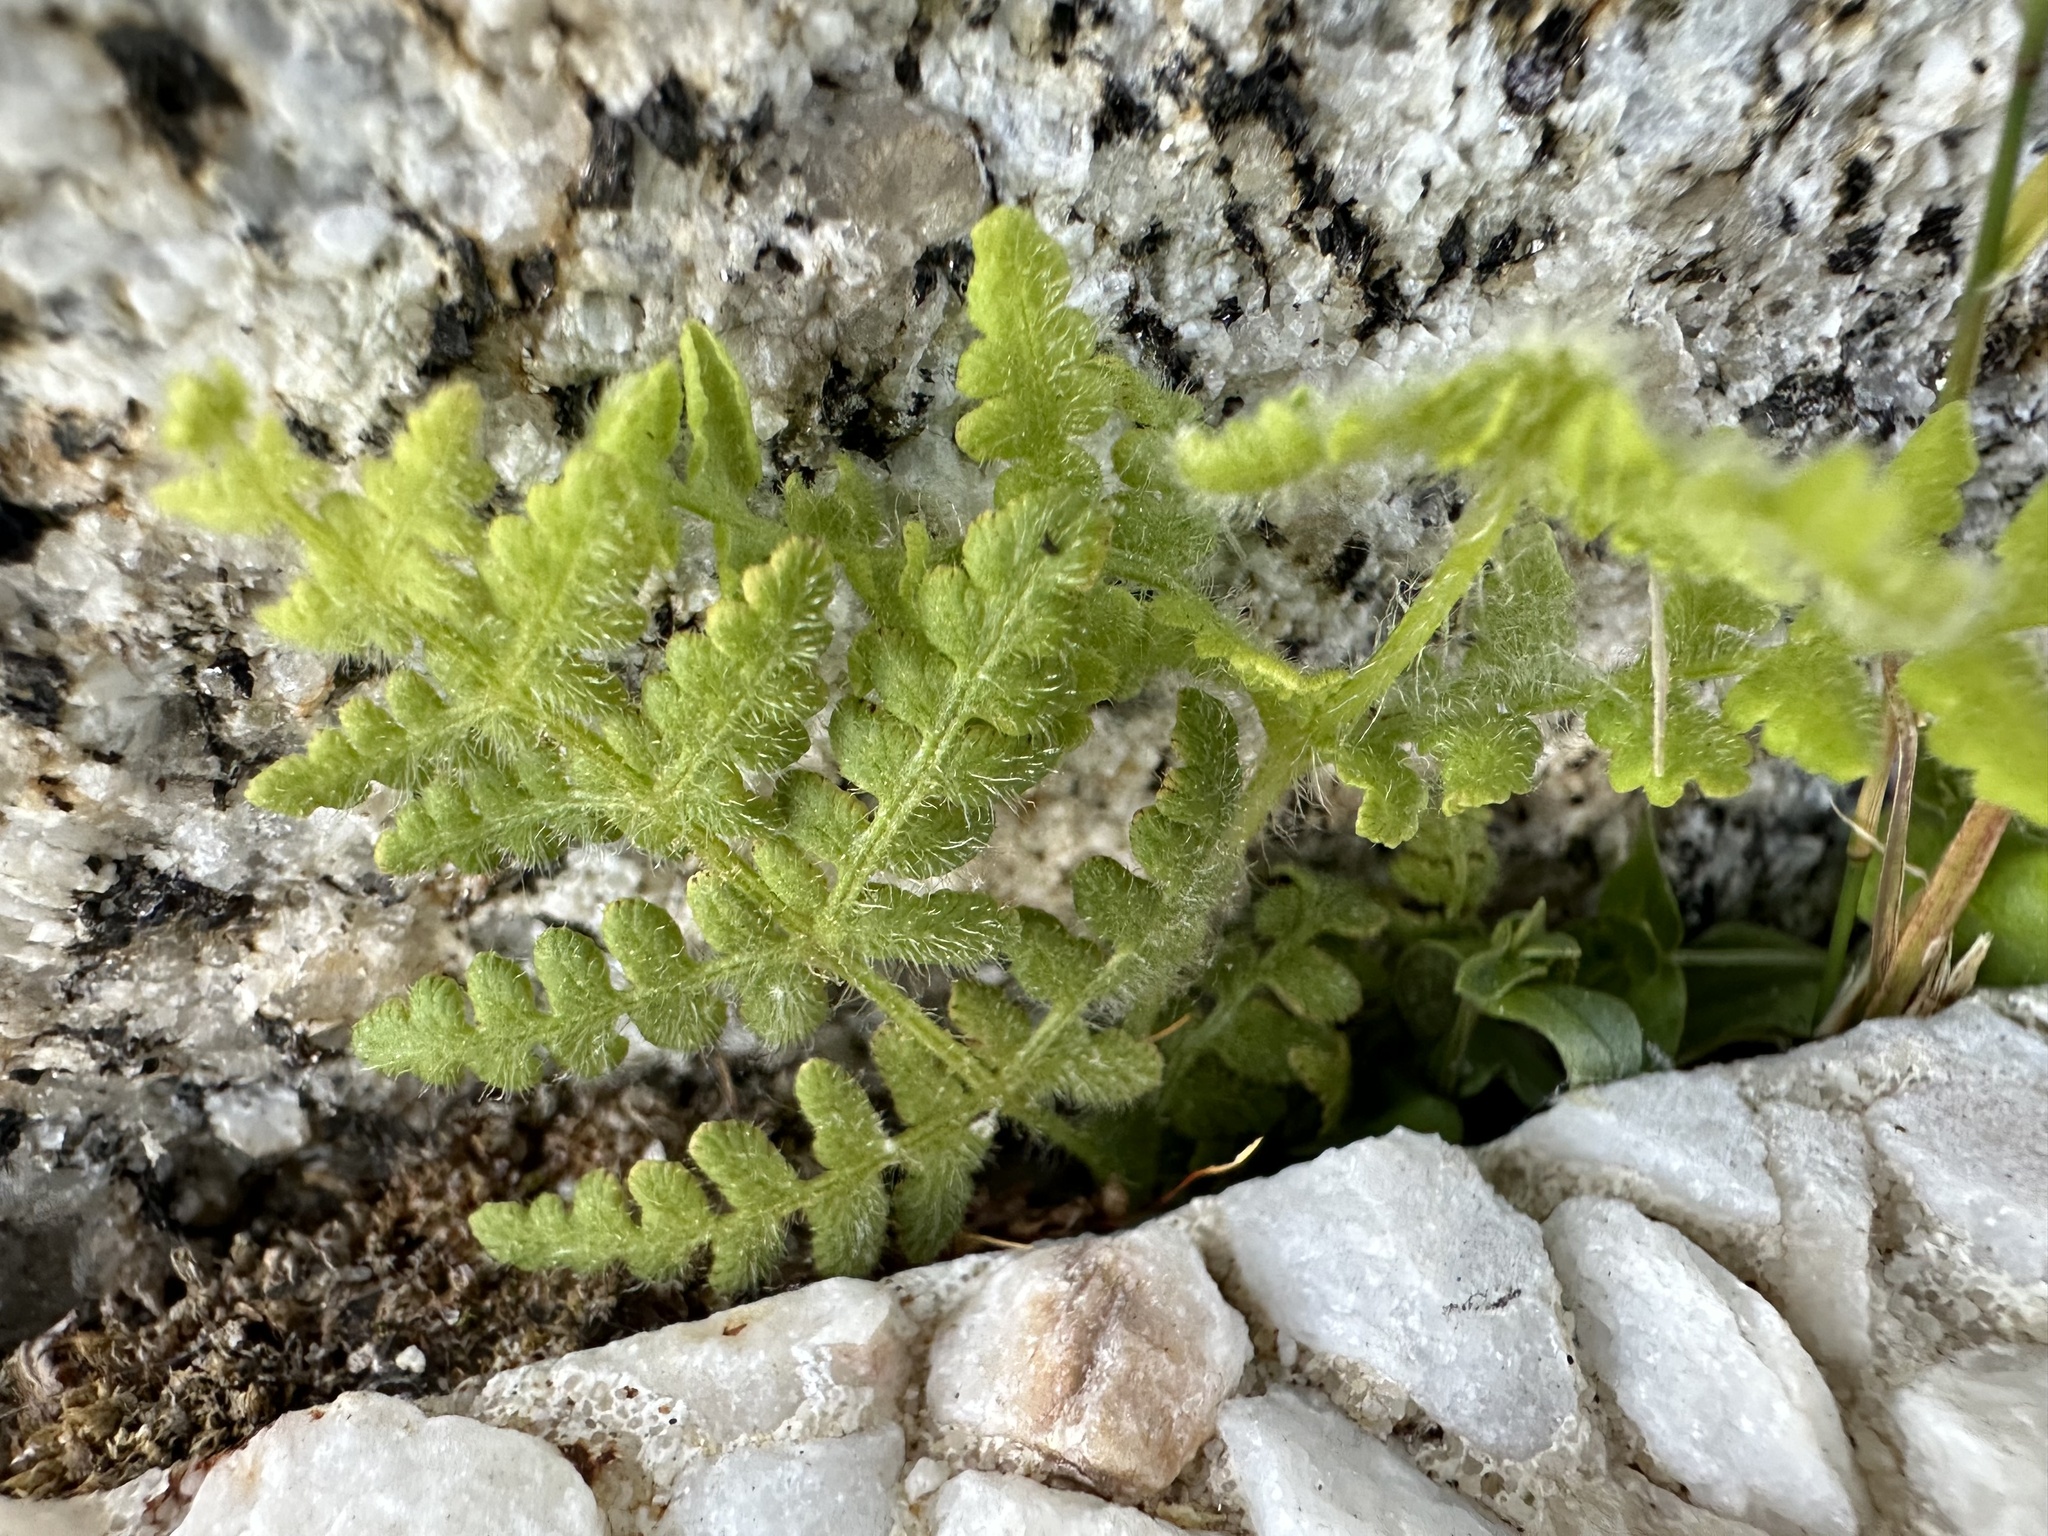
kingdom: Plantae
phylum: Tracheophyta
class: Polypodiopsida
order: Polypodiales
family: Dennstaedtiaceae
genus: Pteridium
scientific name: Pteridium aquilinum
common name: Bracken
